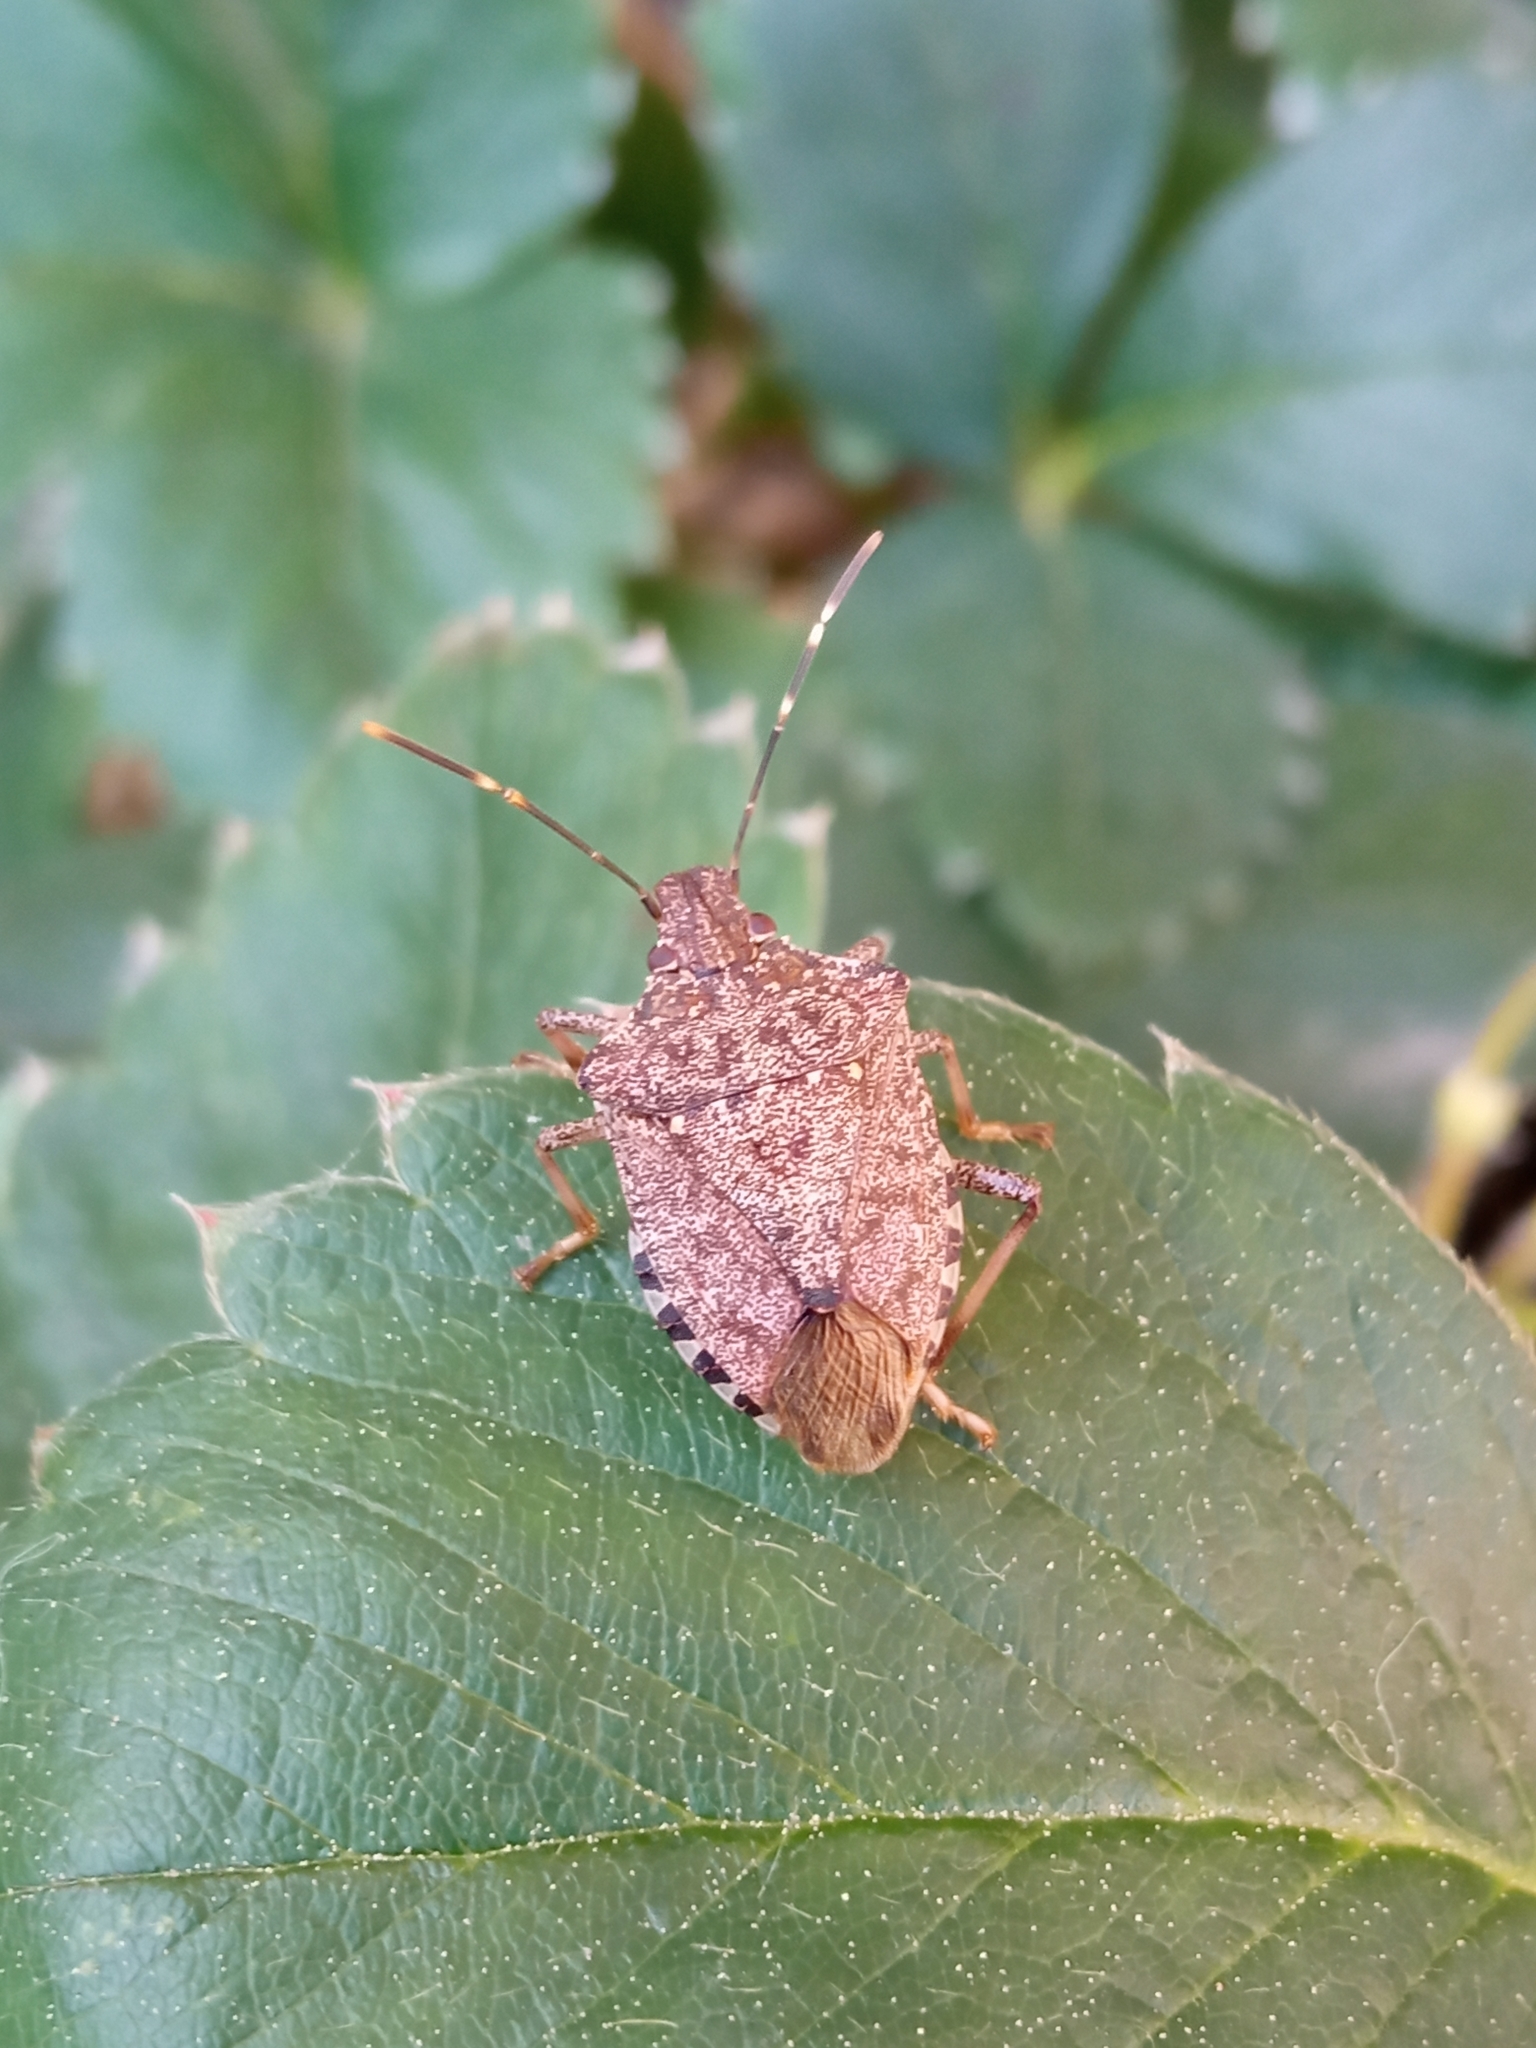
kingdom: Animalia
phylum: Arthropoda
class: Insecta
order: Hemiptera
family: Pentatomidae
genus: Halyomorpha
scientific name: Halyomorpha halys
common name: Brown marmorated stink bug
